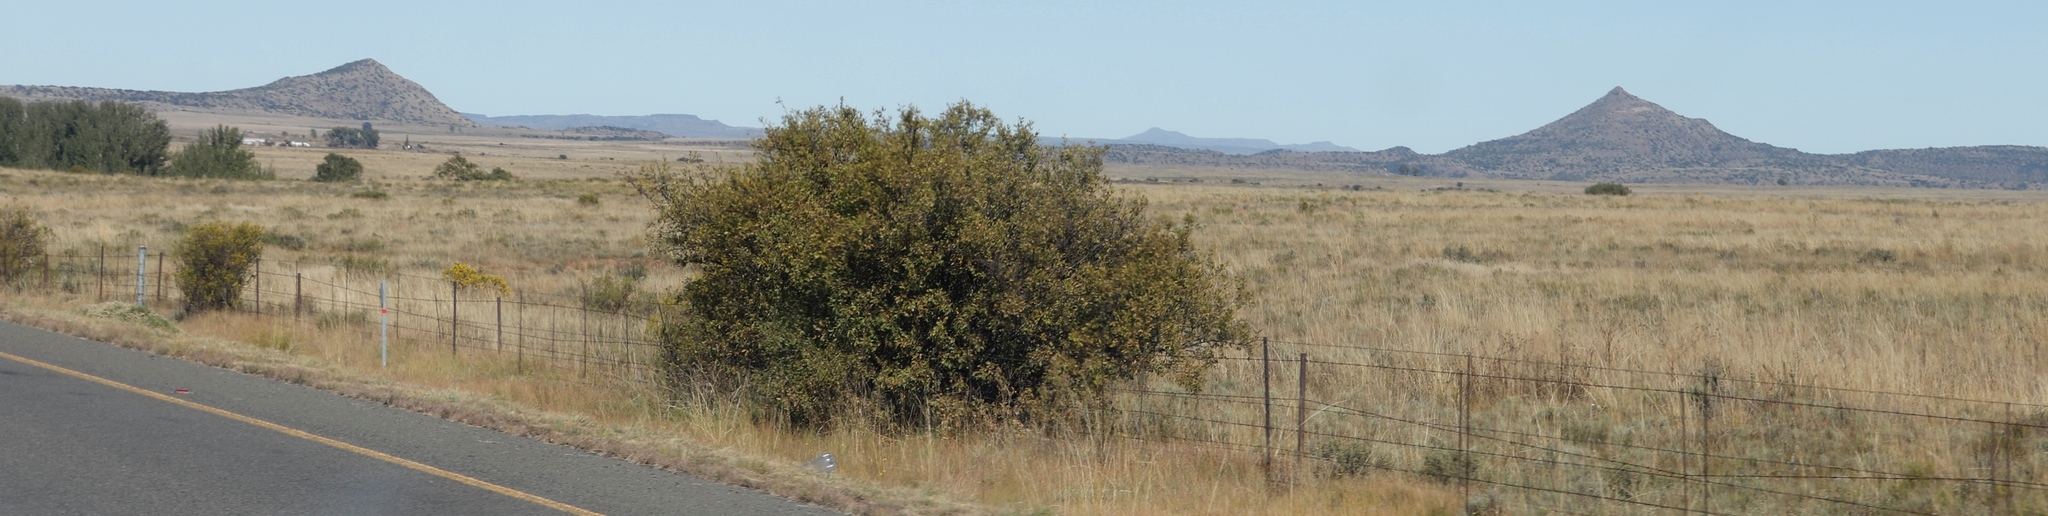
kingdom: Plantae
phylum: Tracheophyta
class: Magnoliopsida
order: Fabales
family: Fabaceae
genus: Vachellia
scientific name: Vachellia karroo
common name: Sweet thorn
